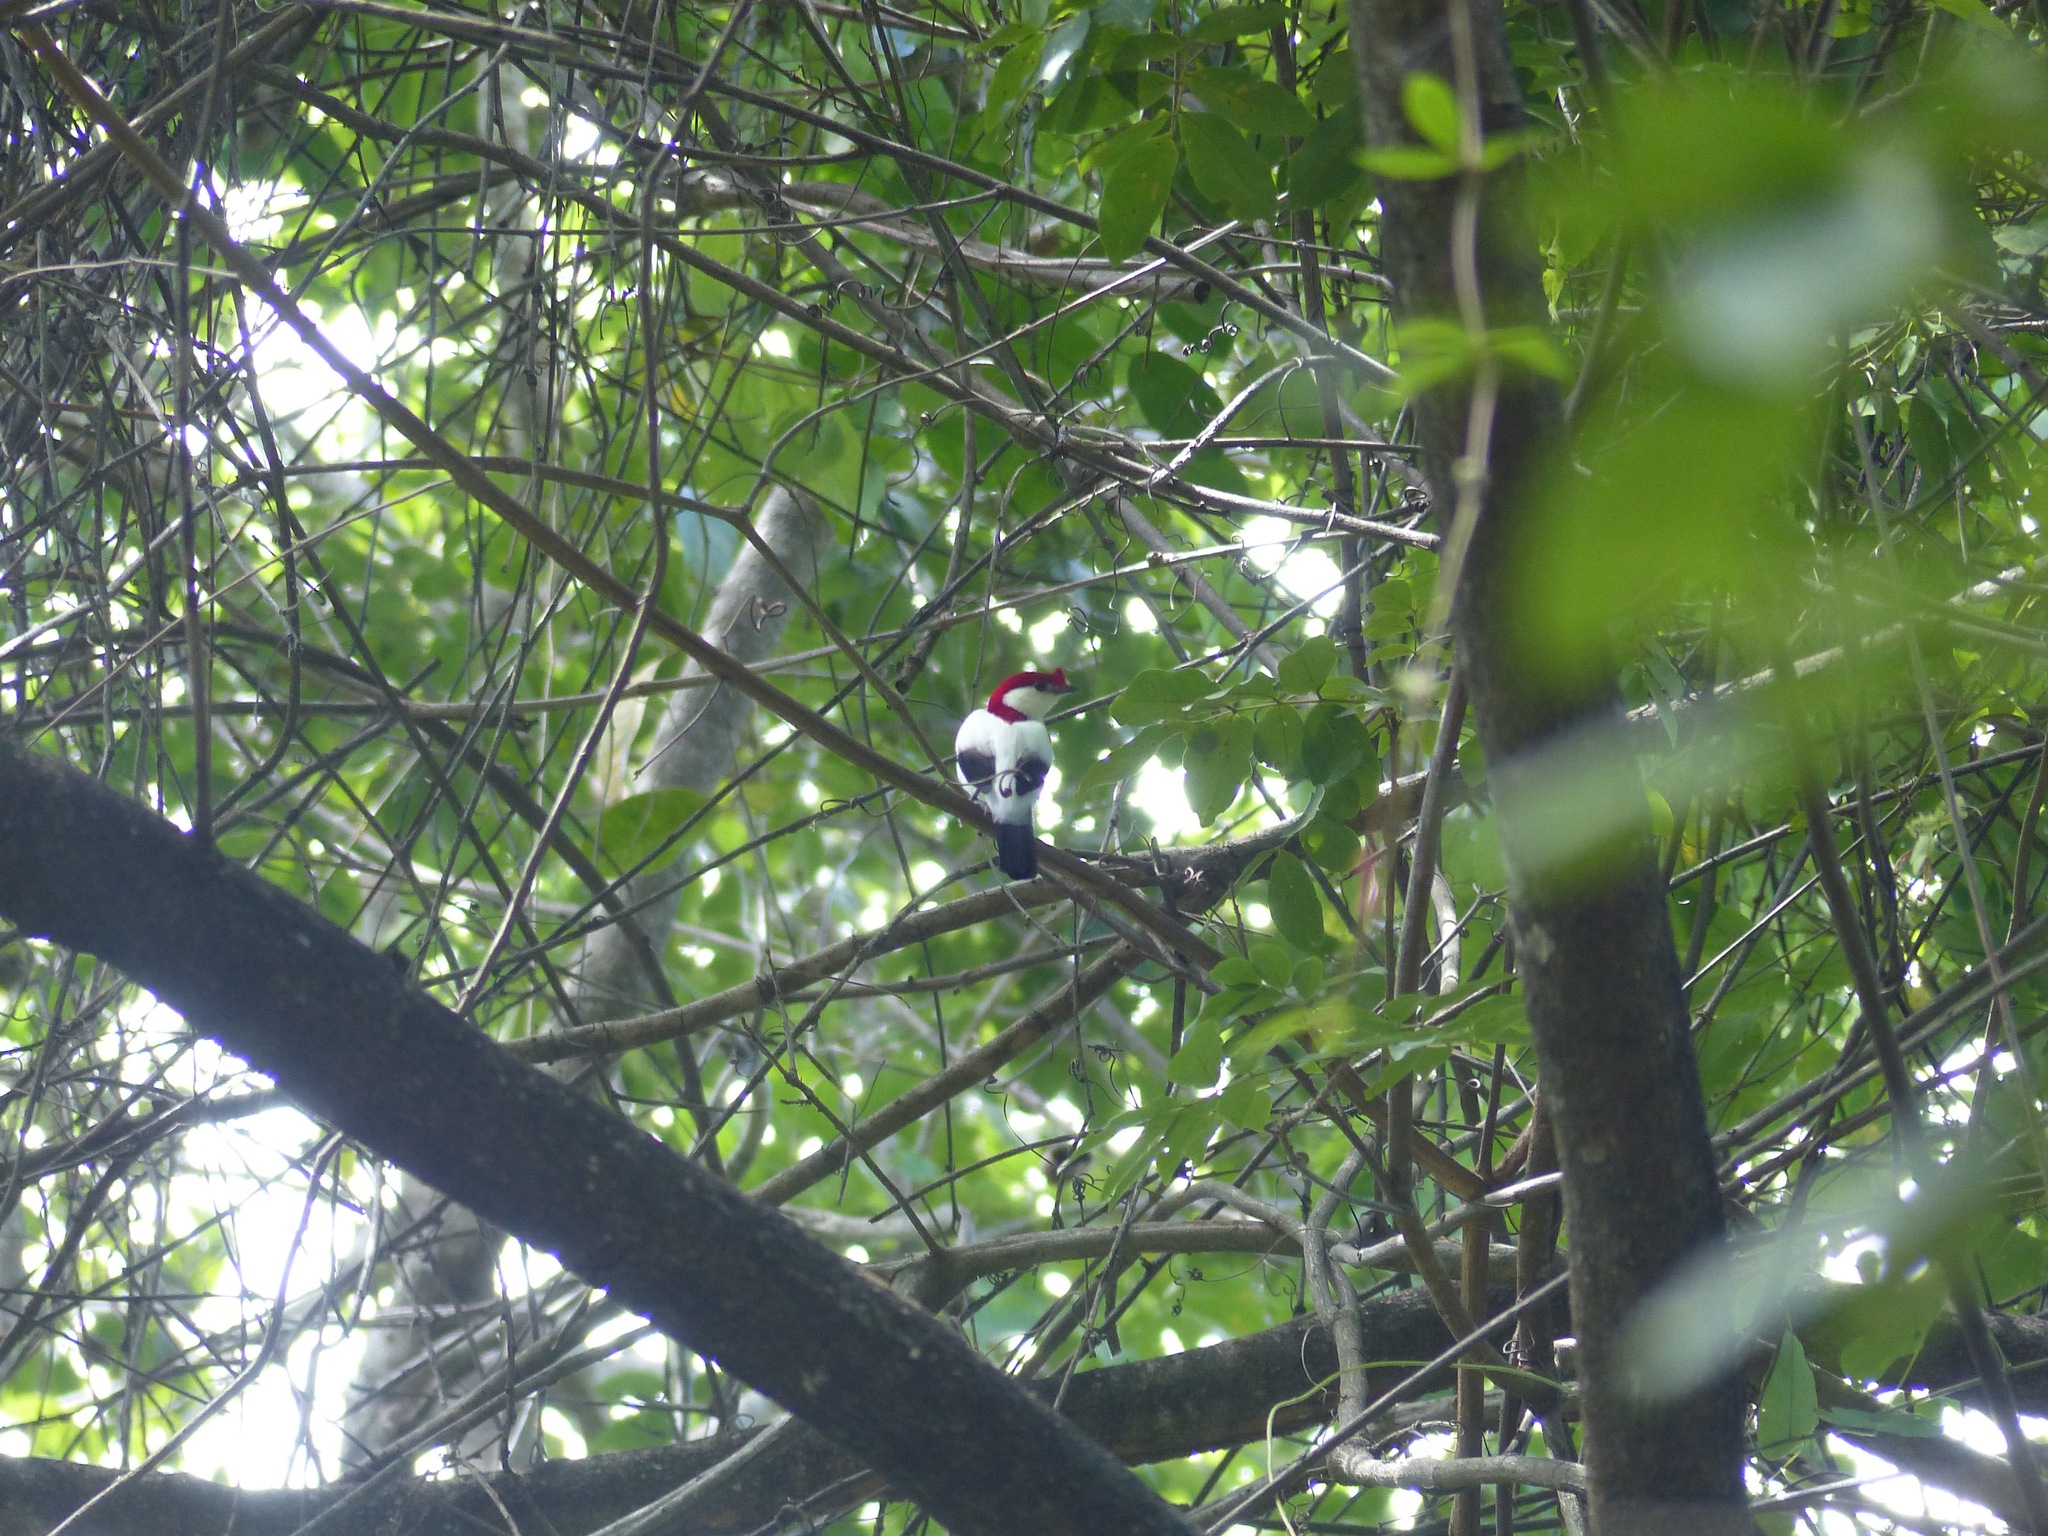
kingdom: Animalia
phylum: Chordata
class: Aves
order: Passeriformes
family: Pipridae
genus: Antilophia
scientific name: Antilophia bokermanni
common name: Araripe manakin
